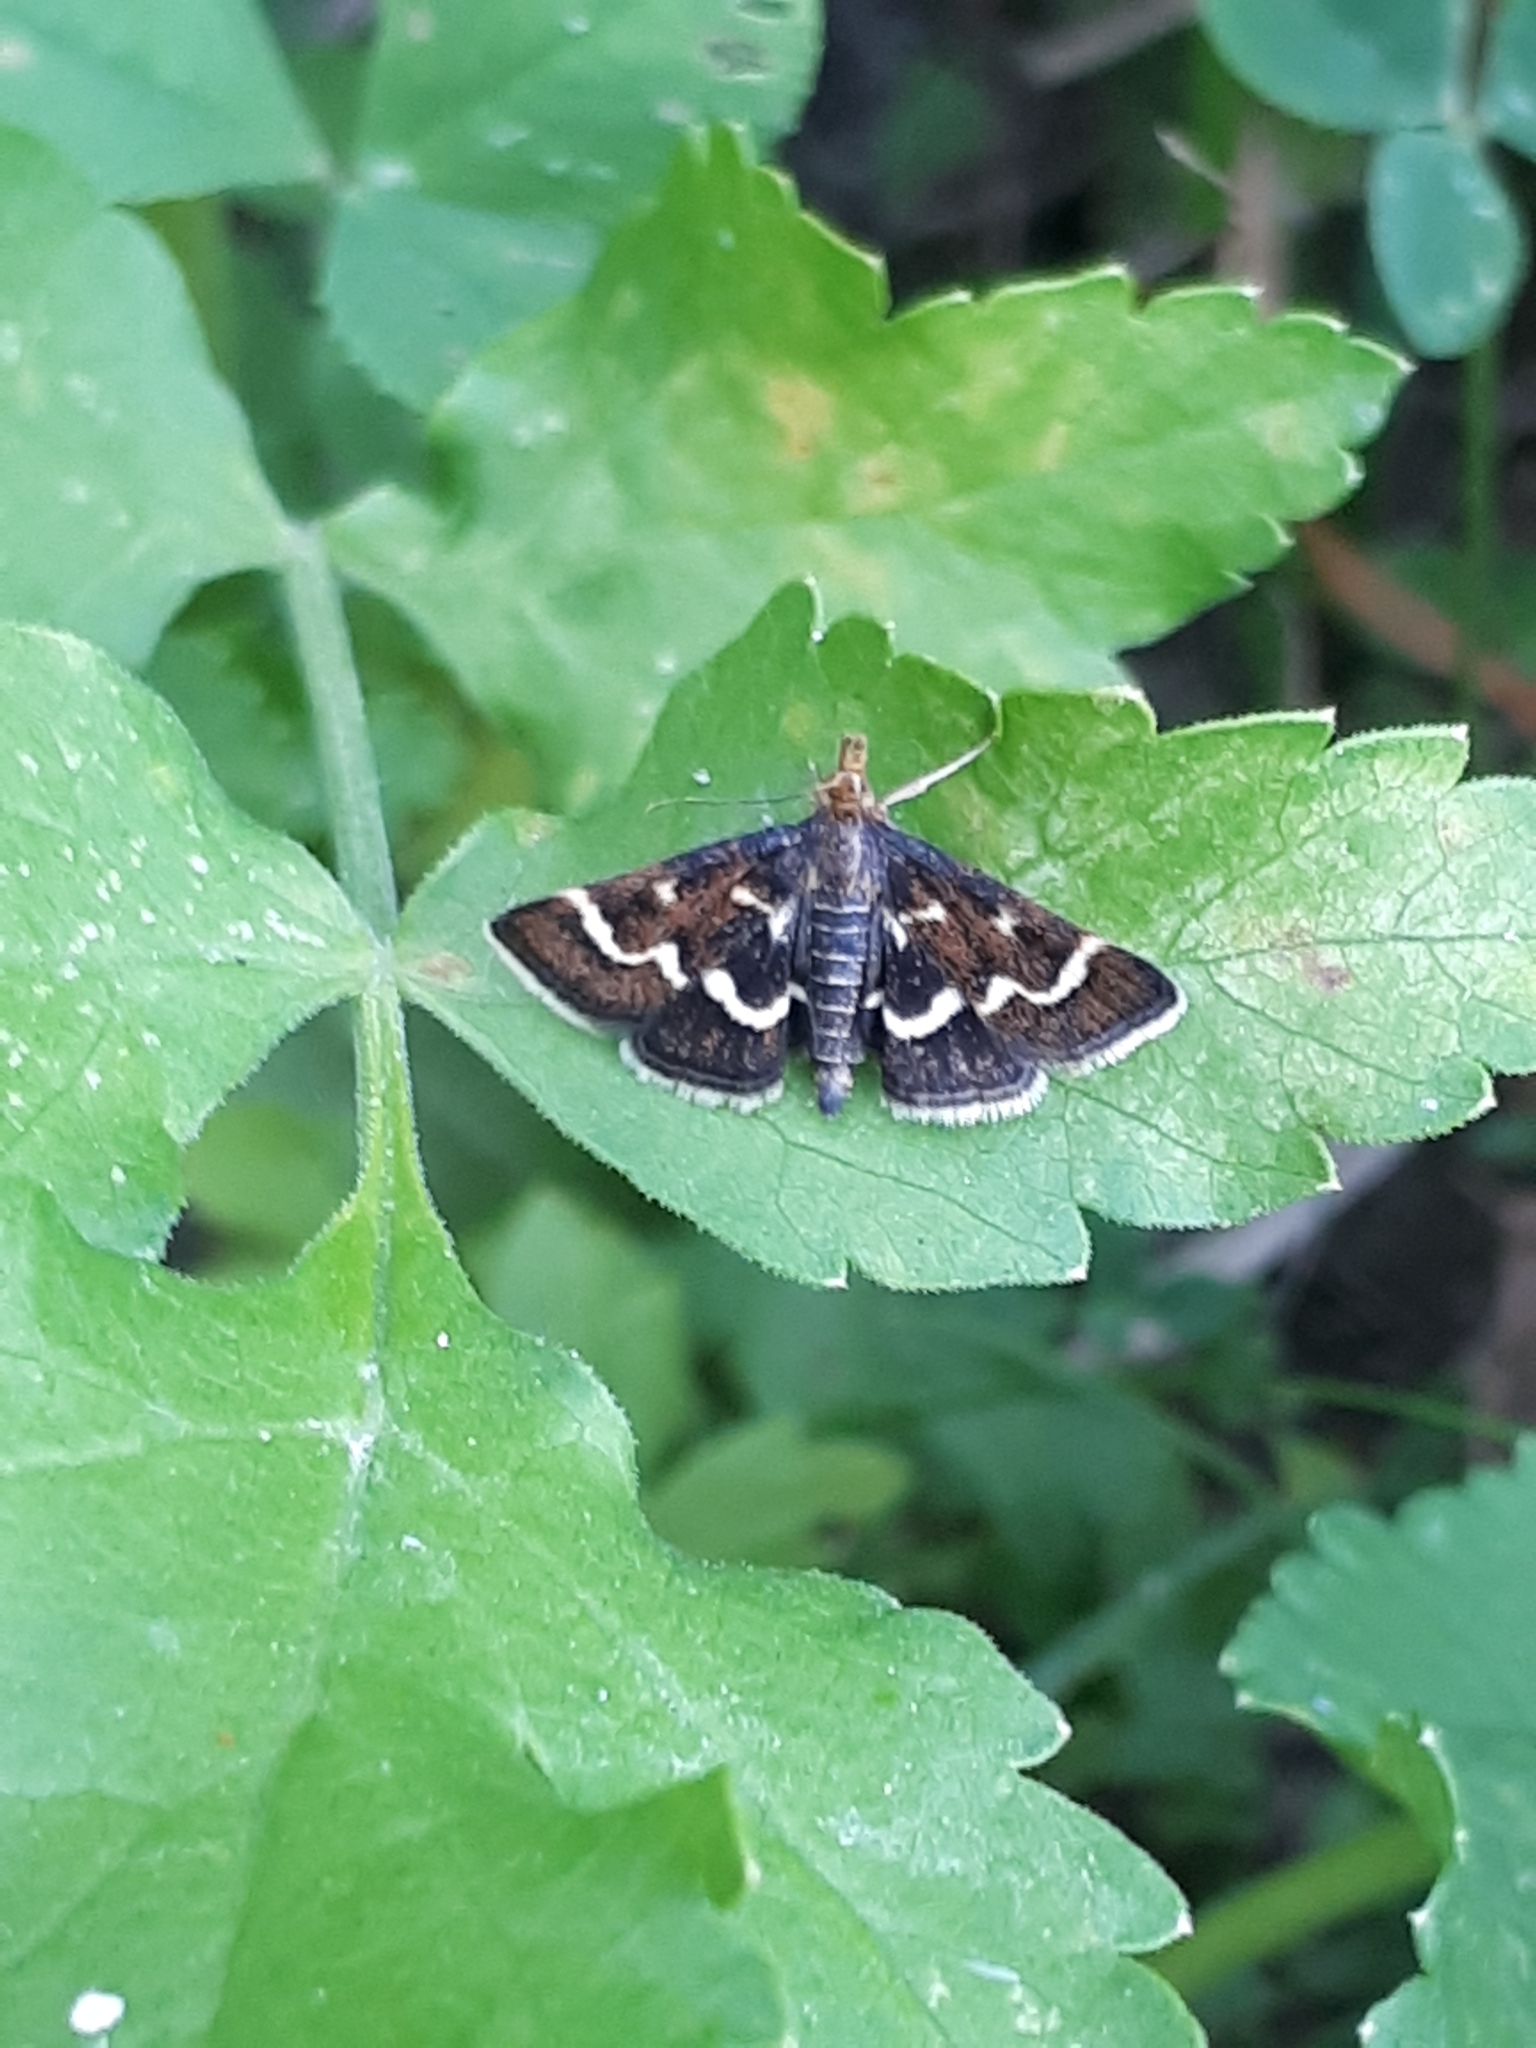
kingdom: Animalia
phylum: Arthropoda
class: Insecta
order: Lepidoptera
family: Crambidae
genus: Pyrausta
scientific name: Pyrausta nigrata
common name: Wavy-barred sable
